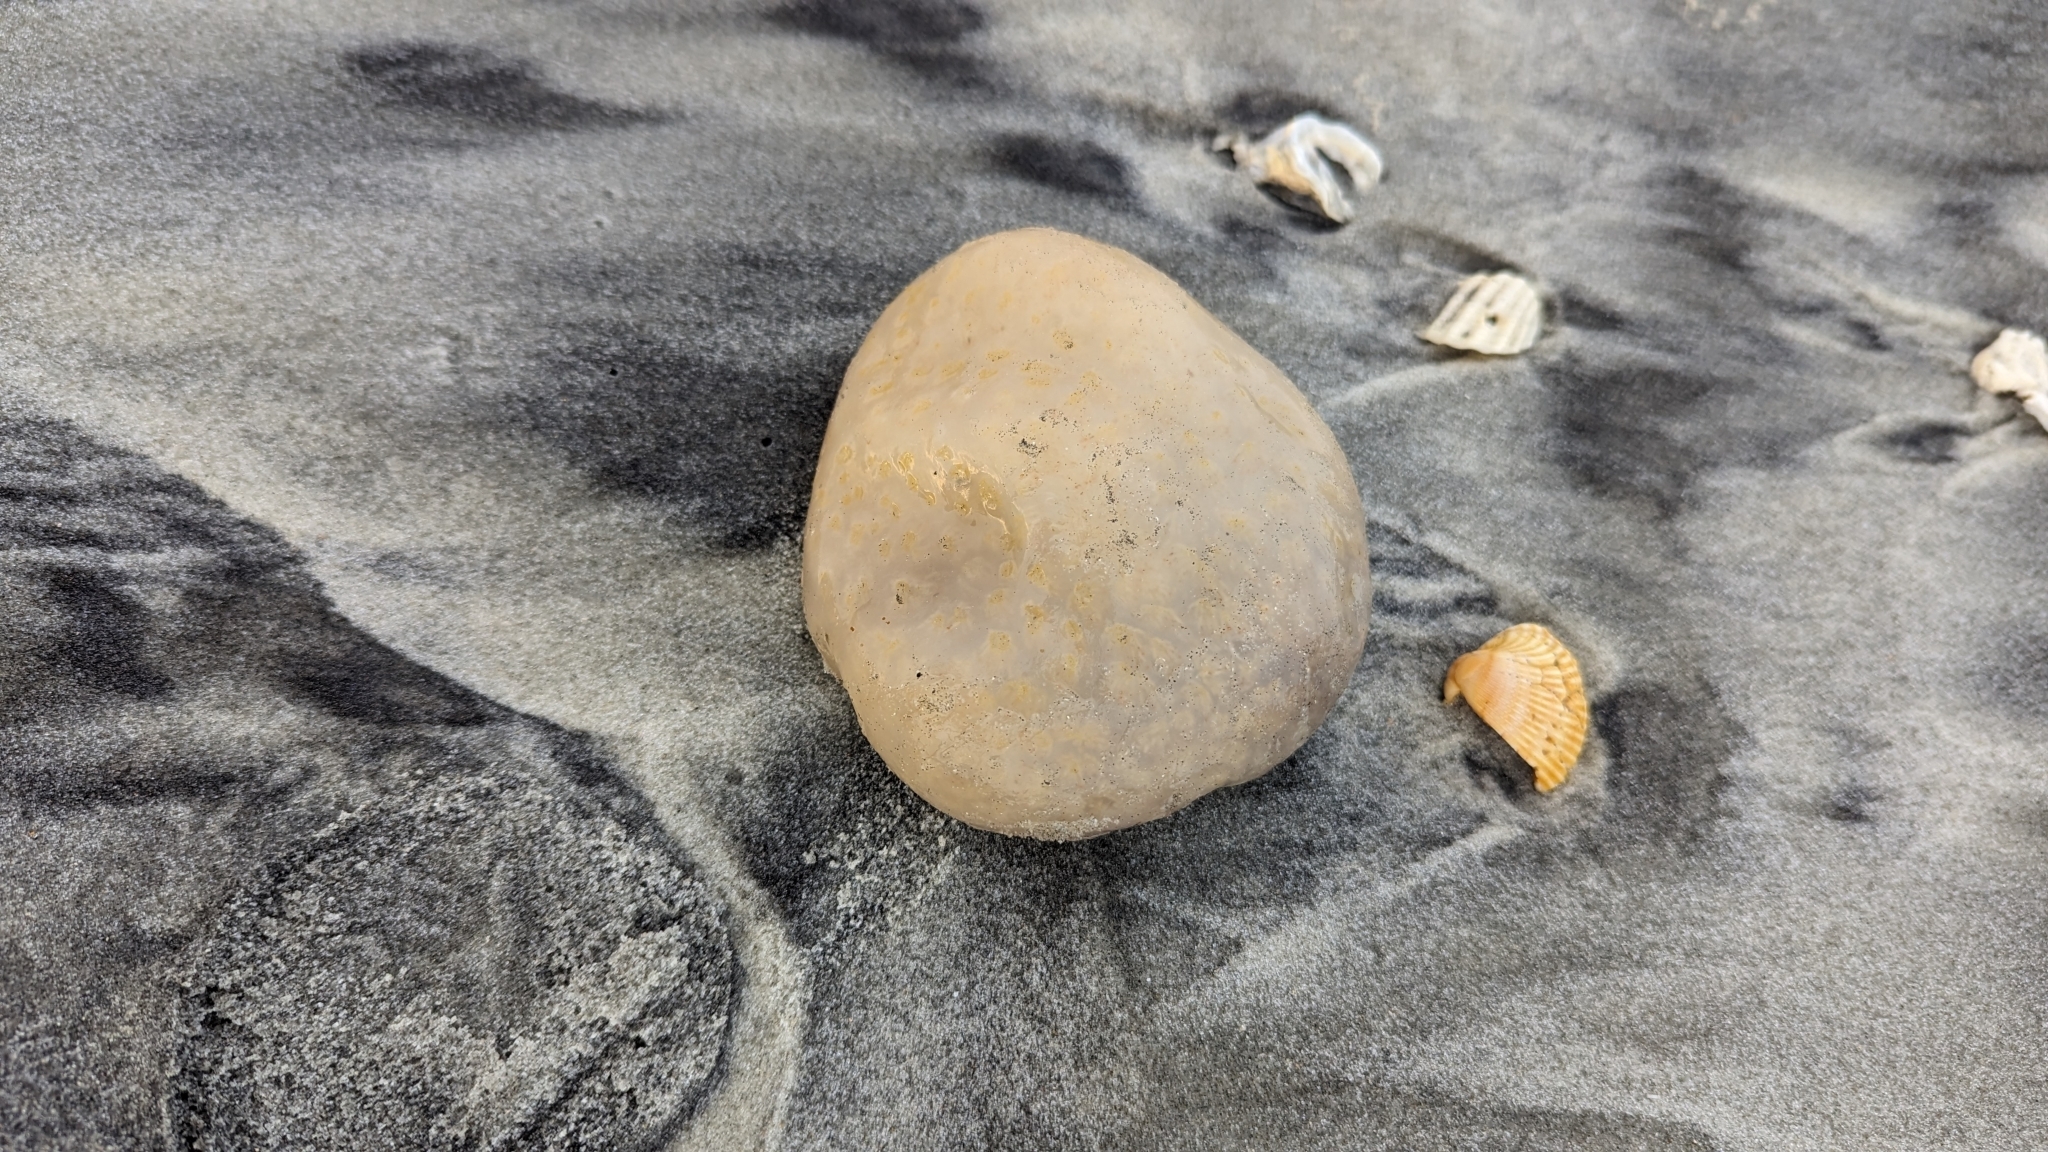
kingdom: Animalia
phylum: Chordata
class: Ascidiacea
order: Aplousobranchia
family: Polyclinidae
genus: Aplidium
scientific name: Aplidium stellatum
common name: Atlantic sea pork
